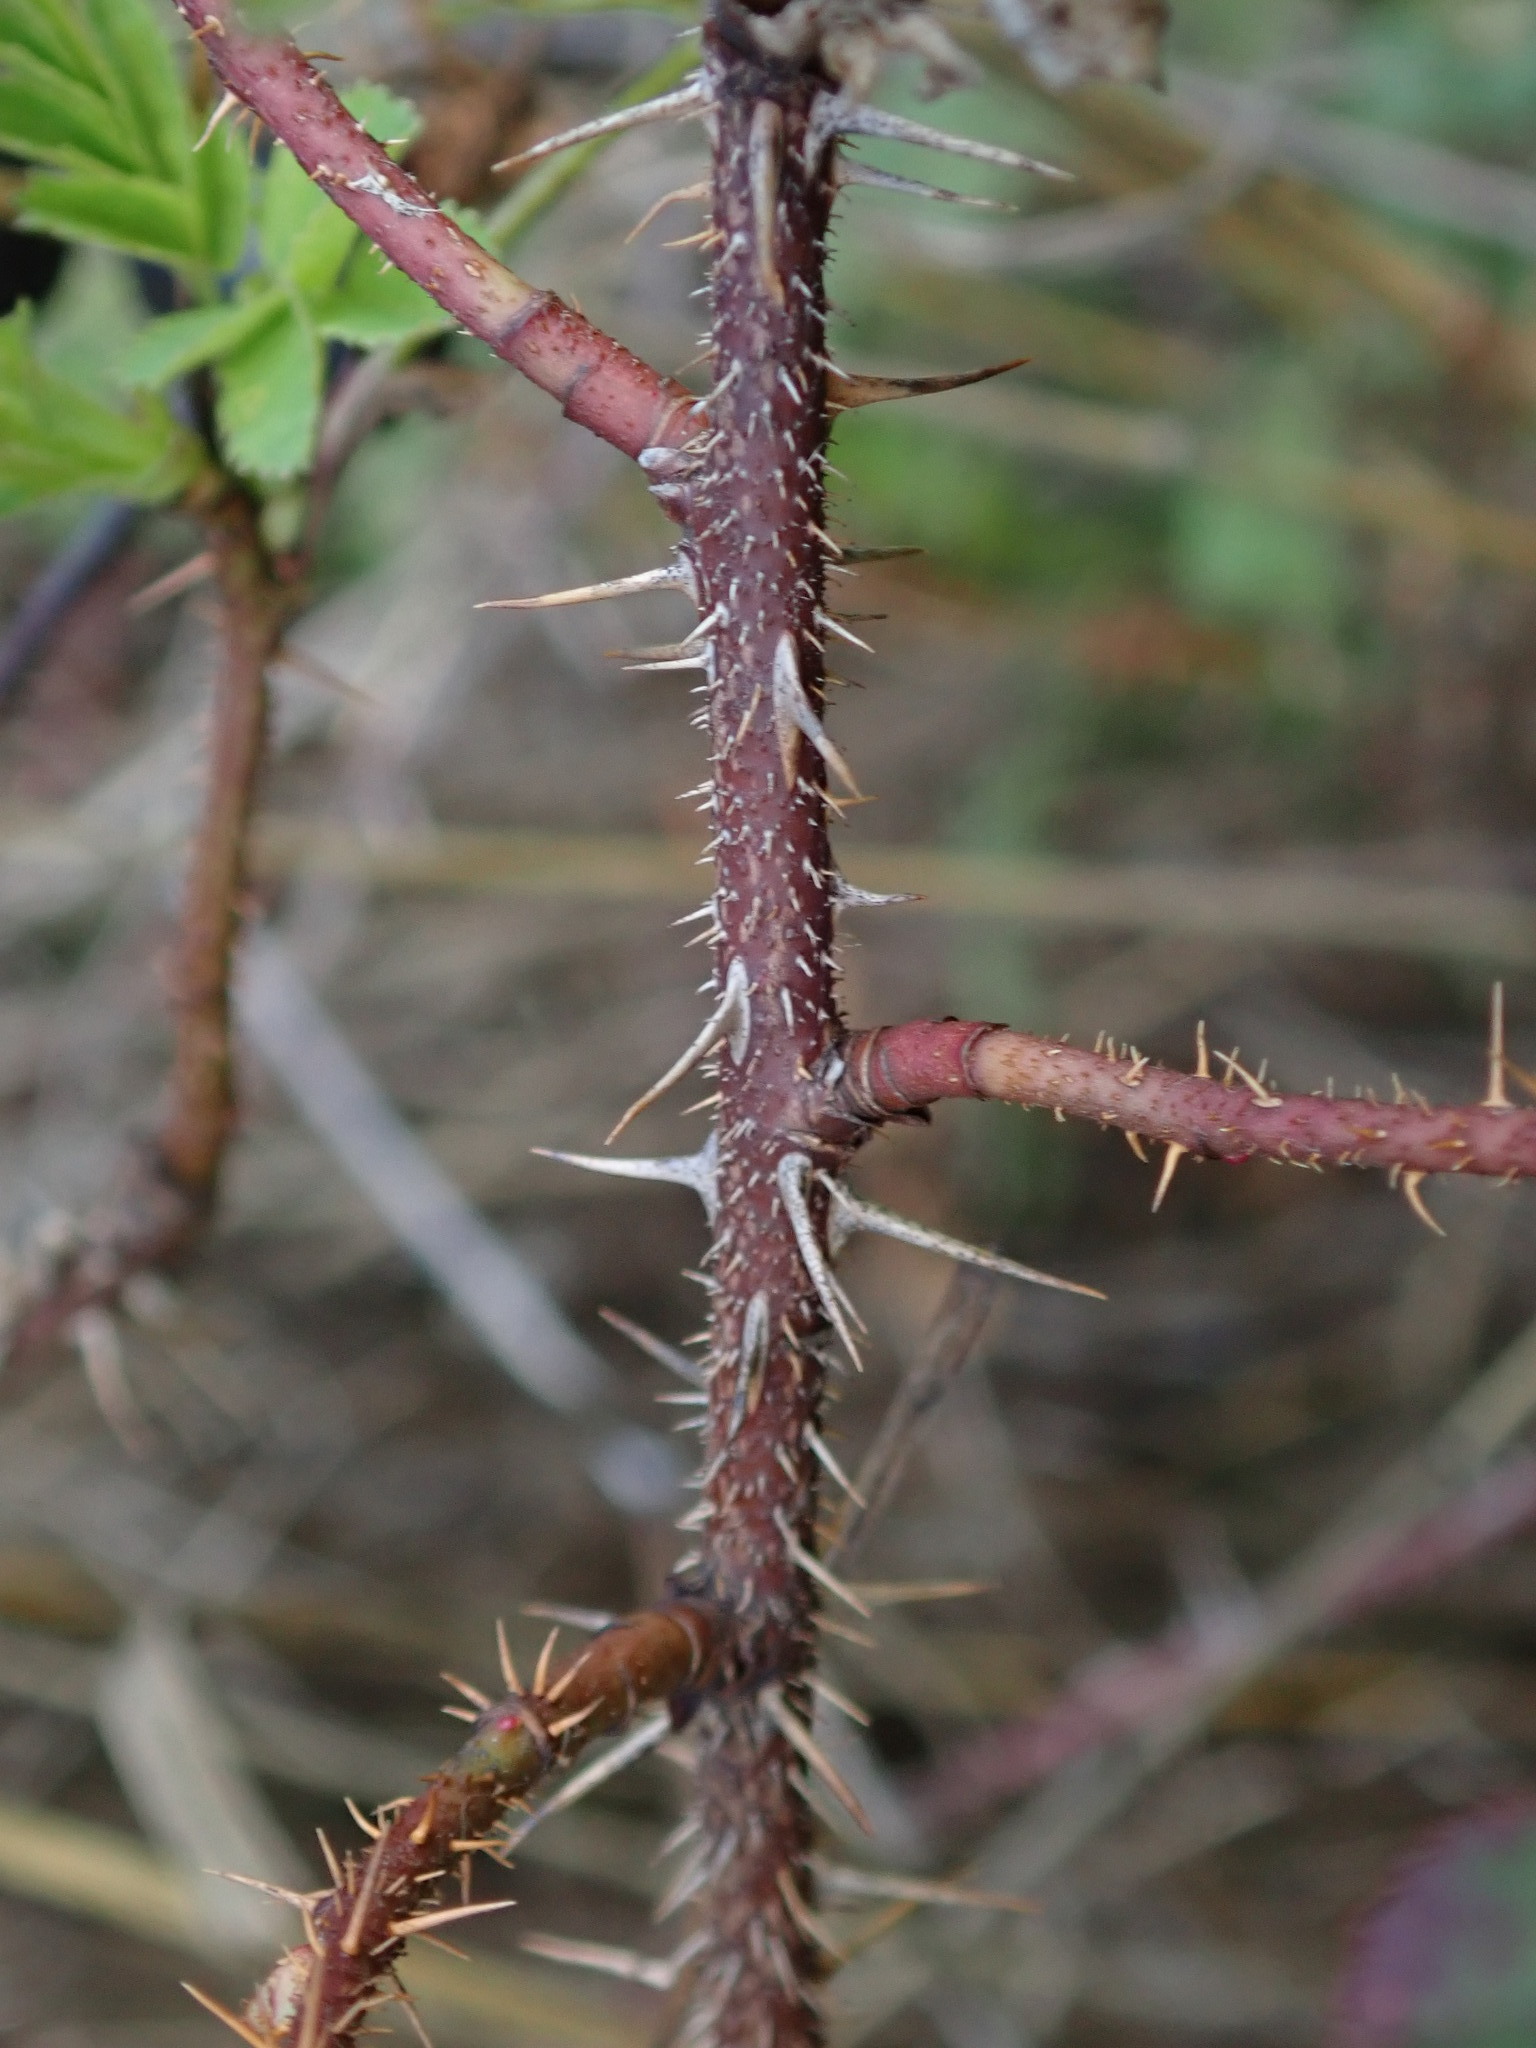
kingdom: Plantae
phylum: Tracheophyta
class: Magnoliopsida
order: Rosales
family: Rosaceae
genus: Rosa
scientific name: Rosa spinosissima
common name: Burnet rose
